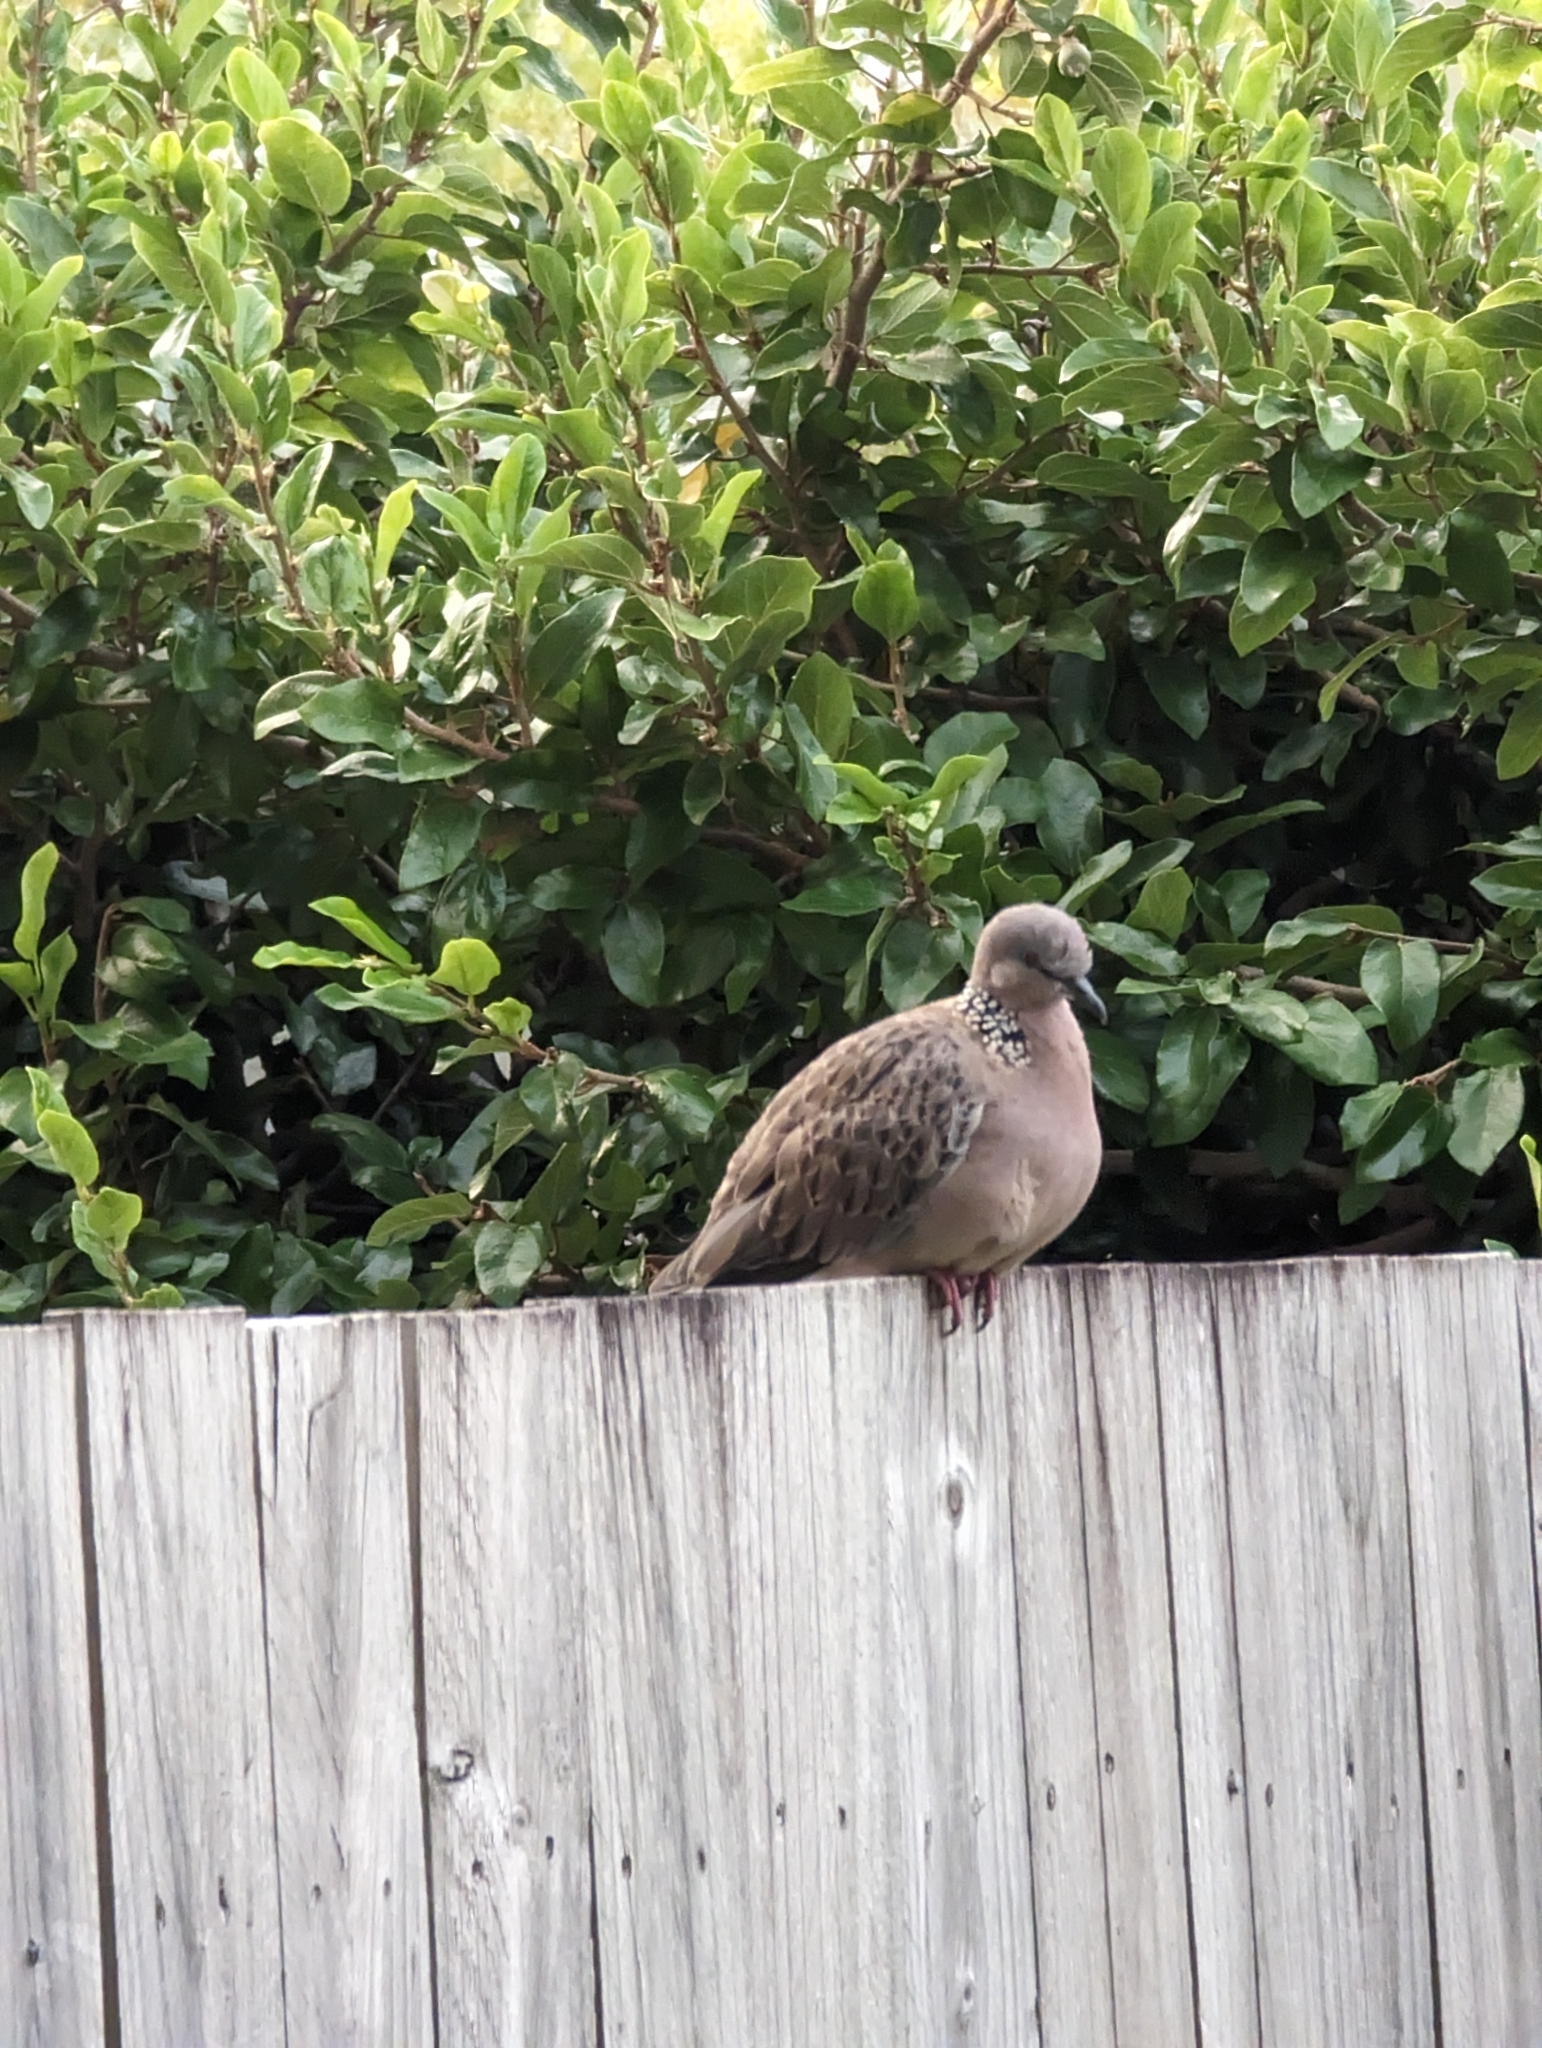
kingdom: Animalia
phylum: Chordata
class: Aves
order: Columbiformes
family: Columbidae
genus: Spilopelia
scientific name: Spilopelia chinensis
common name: Spotted dove
